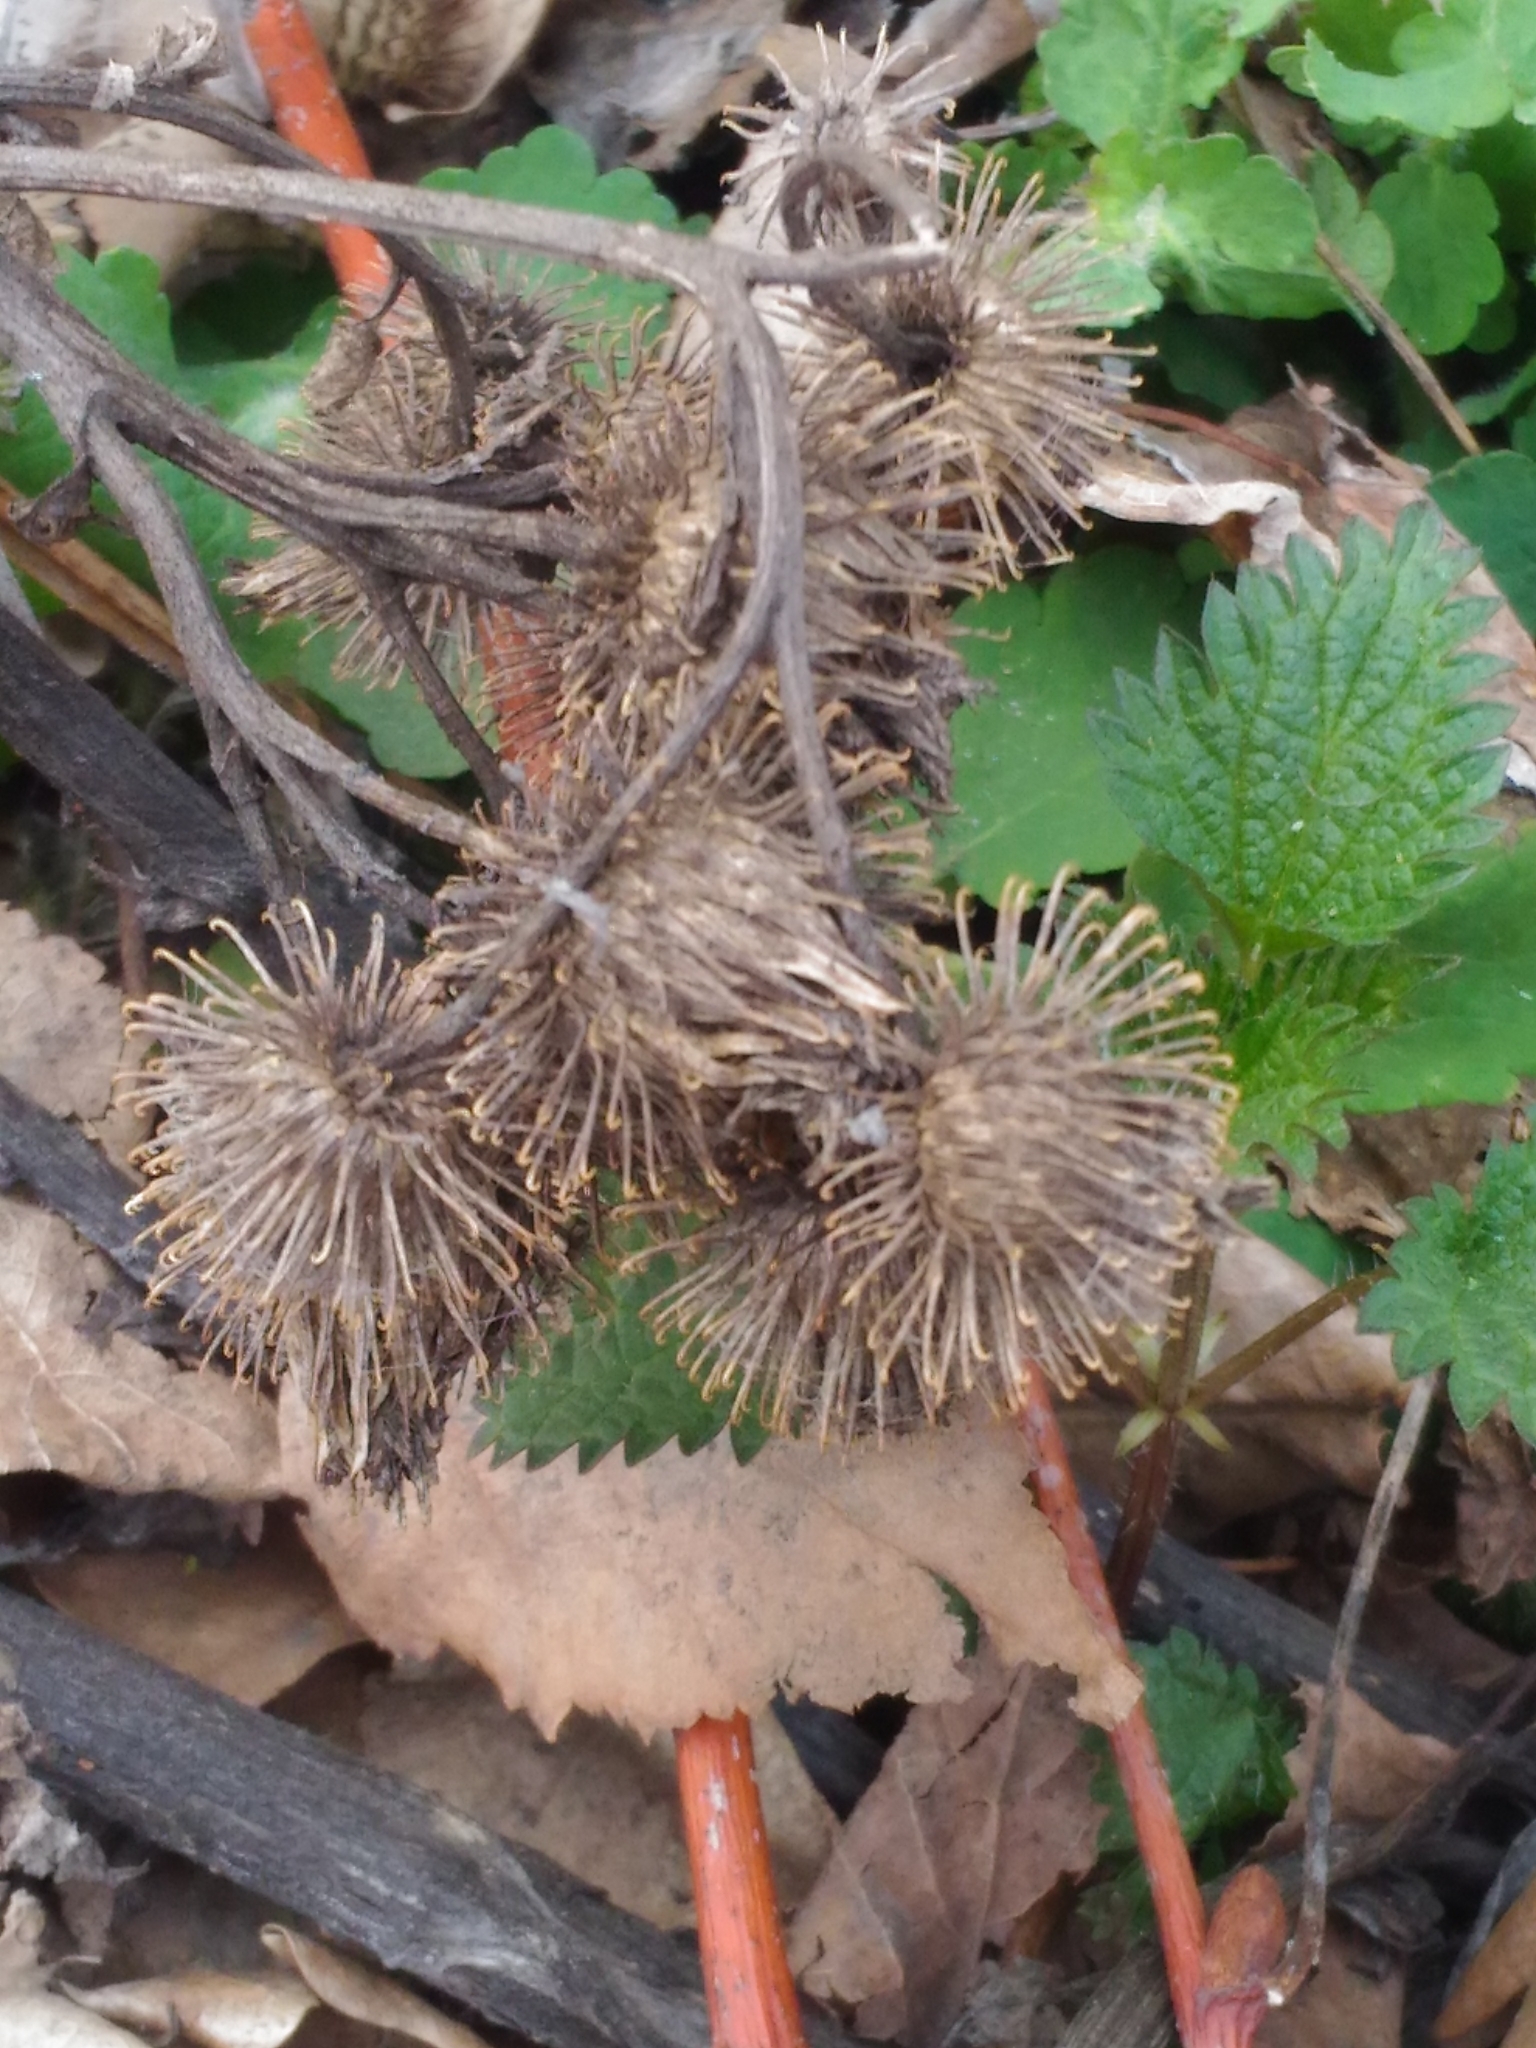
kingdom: Plantae
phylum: Tracheophyta
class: Magnoliopsida
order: Asterales
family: Asteraceae
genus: Arctium
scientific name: Arctium tomentosum
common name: Woolly burdock
